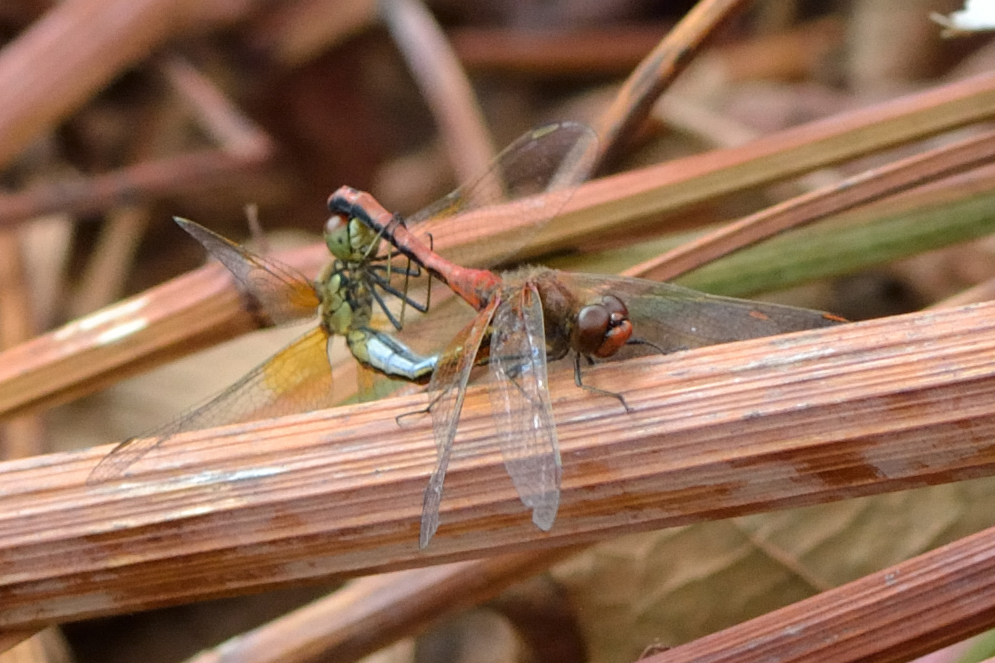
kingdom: Animalia
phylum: Arthropoda
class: Insecta
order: Odonata
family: Libellulidae
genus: Sympetrum
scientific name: Sympetrum flaveolum
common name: Yellow-winged darter
